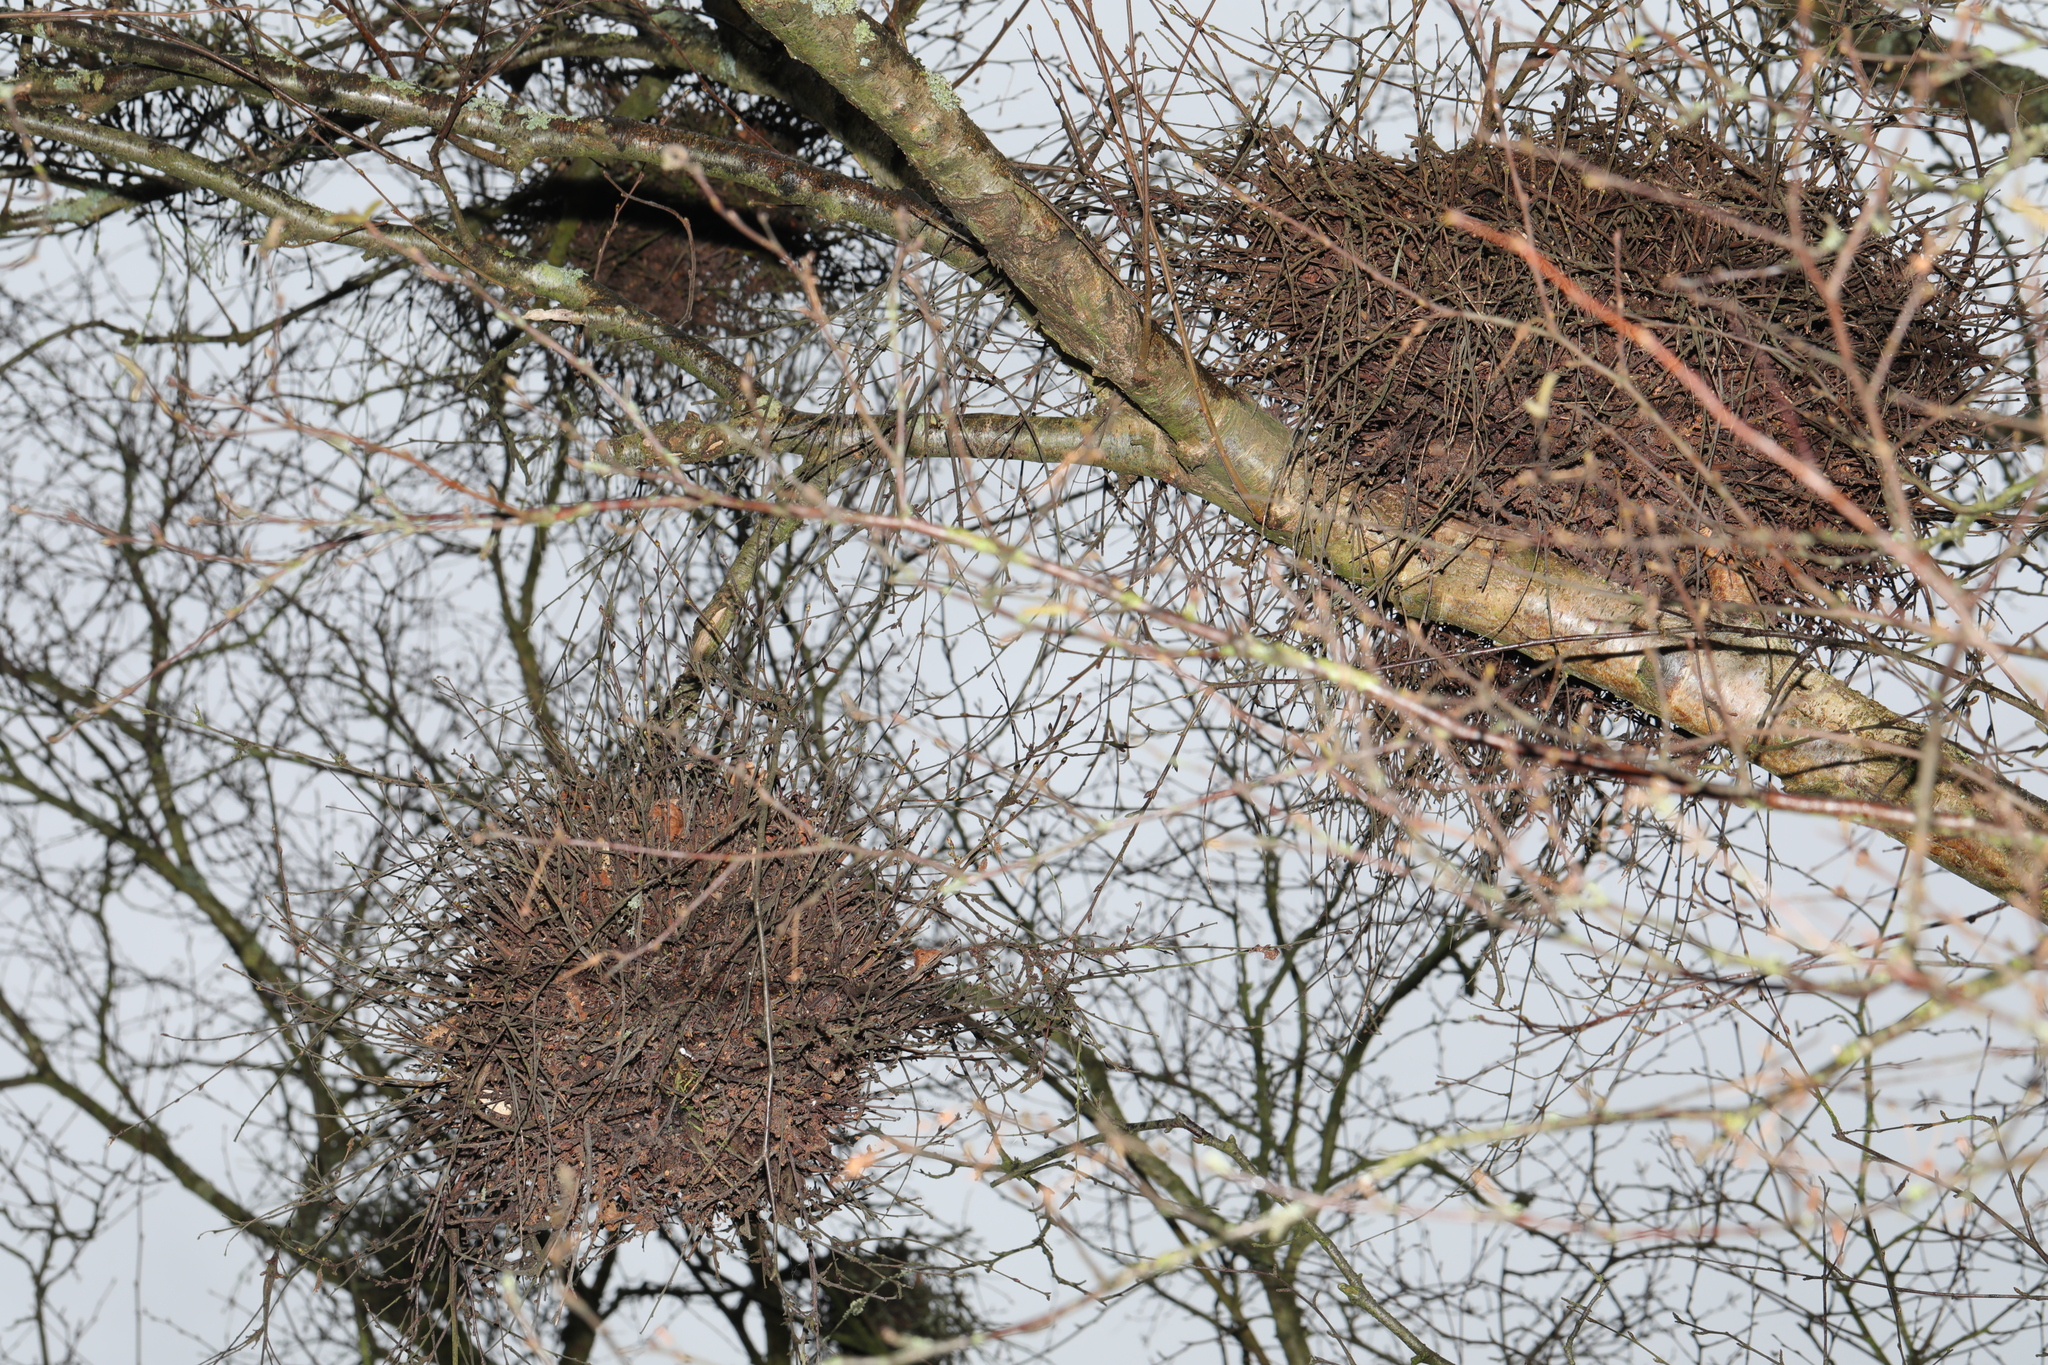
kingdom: Fungi
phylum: Ascomycota
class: Taphrinomycetes
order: Taphrinales
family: Taphrinaceae
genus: Taphrina
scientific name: Taphrina betulina
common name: Birch besom
